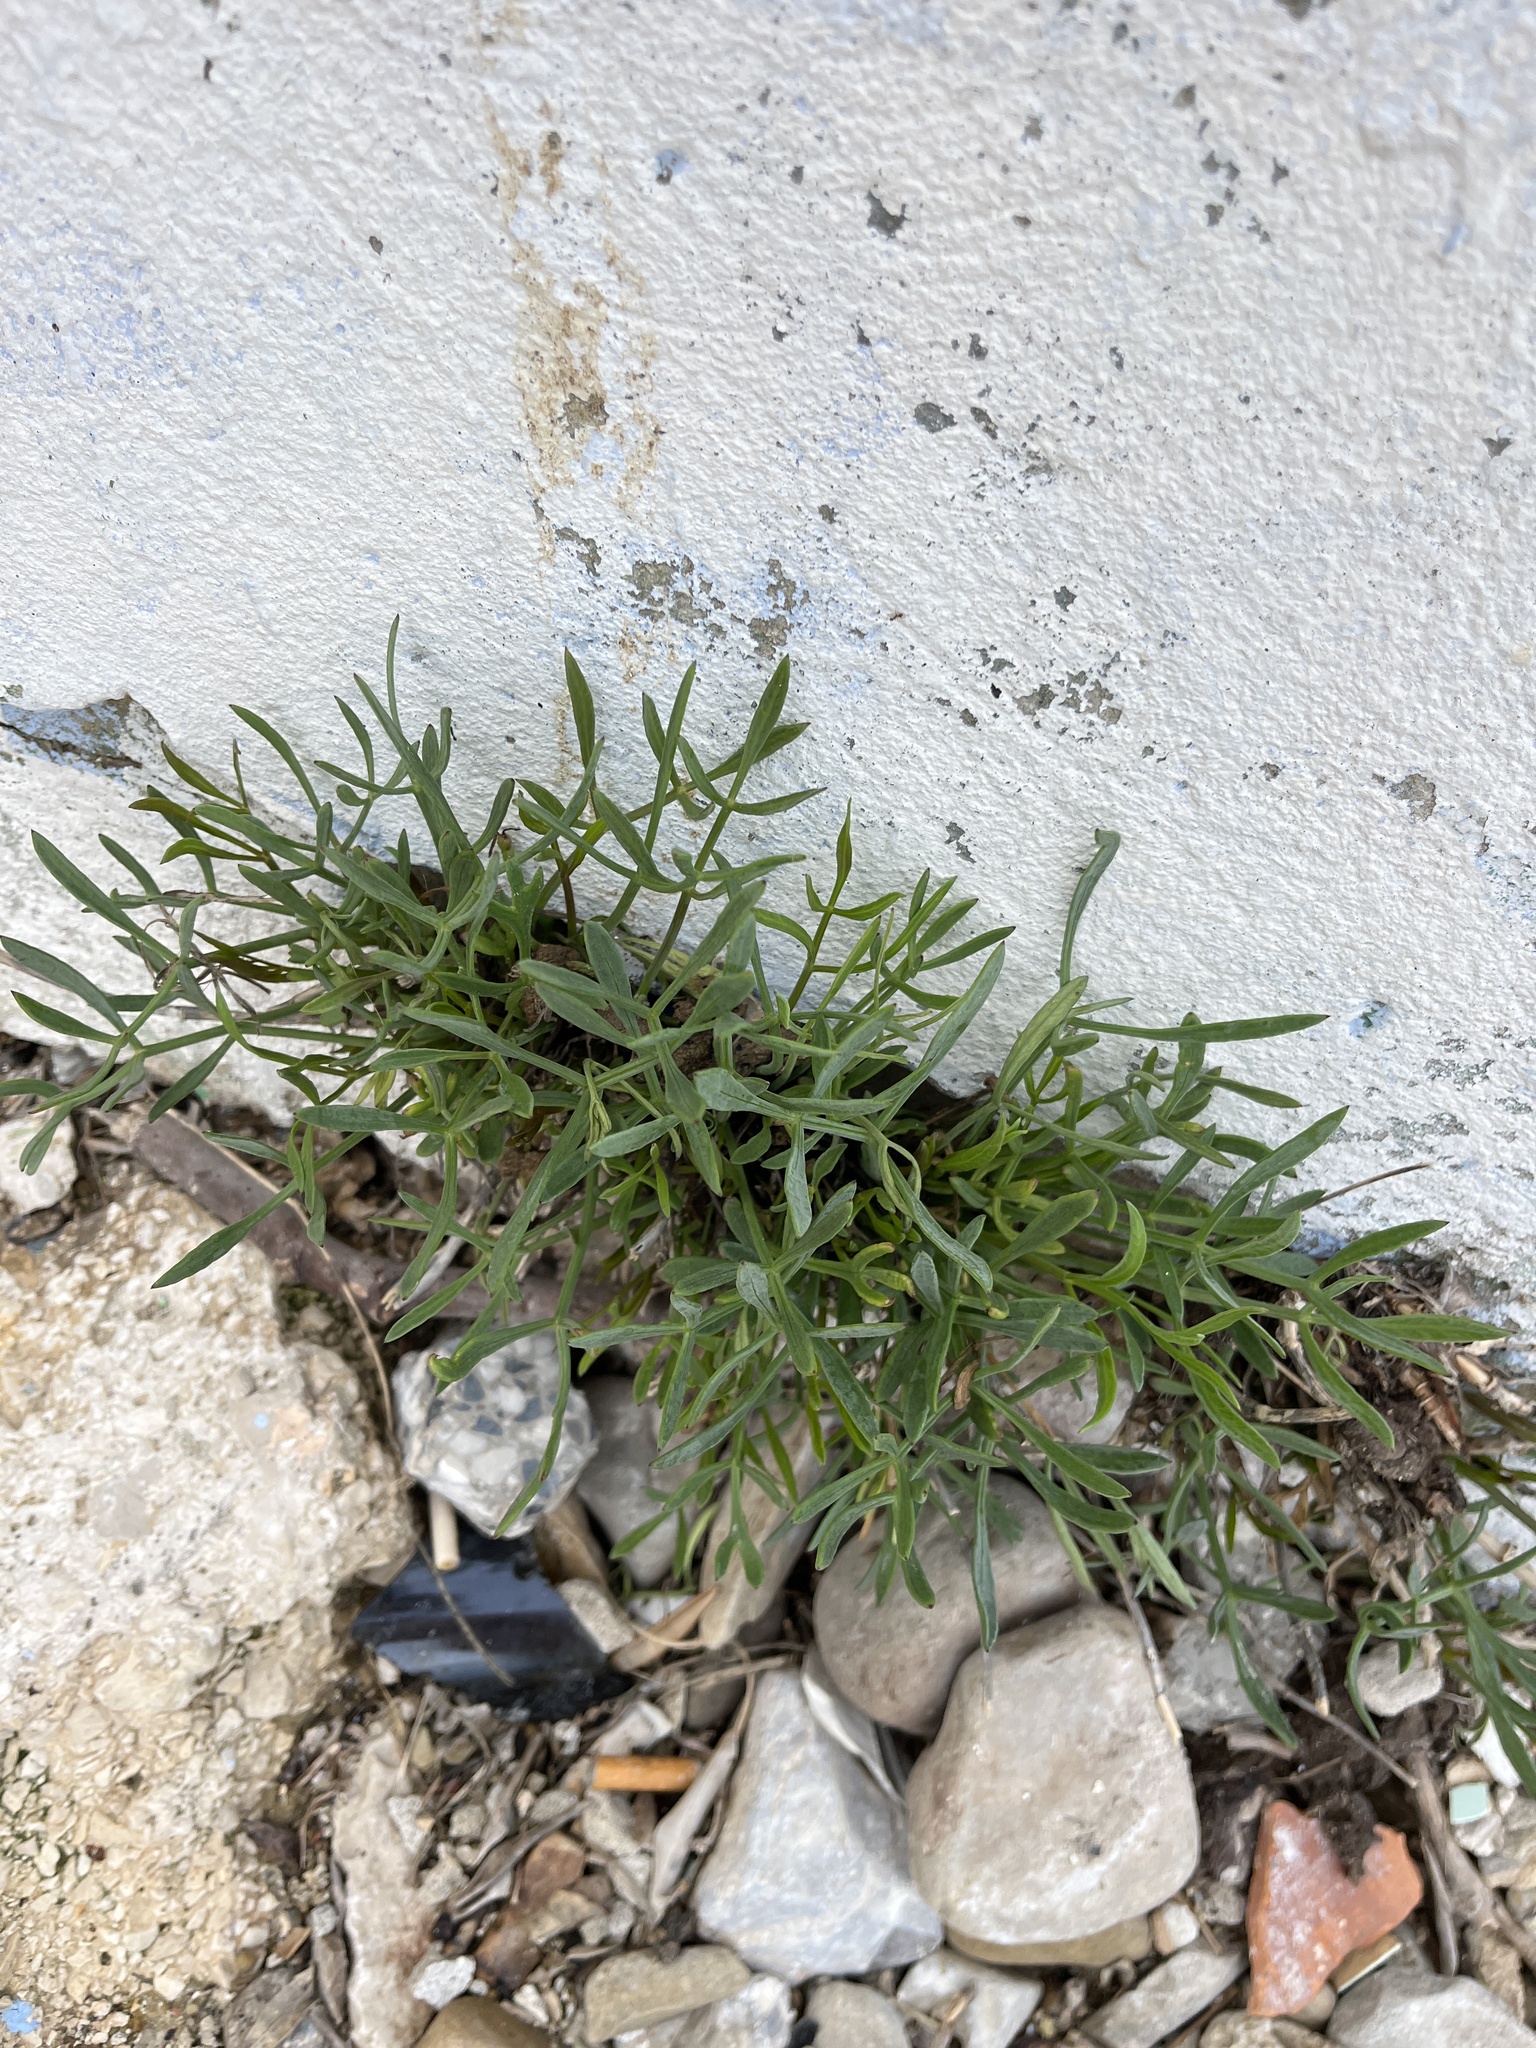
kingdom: Plantae
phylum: Tracheophyta
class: Magnoliopsida
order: Apiales
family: Apiaceae
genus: Crithmum
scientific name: Crithmum maritimum
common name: Rock samphire
